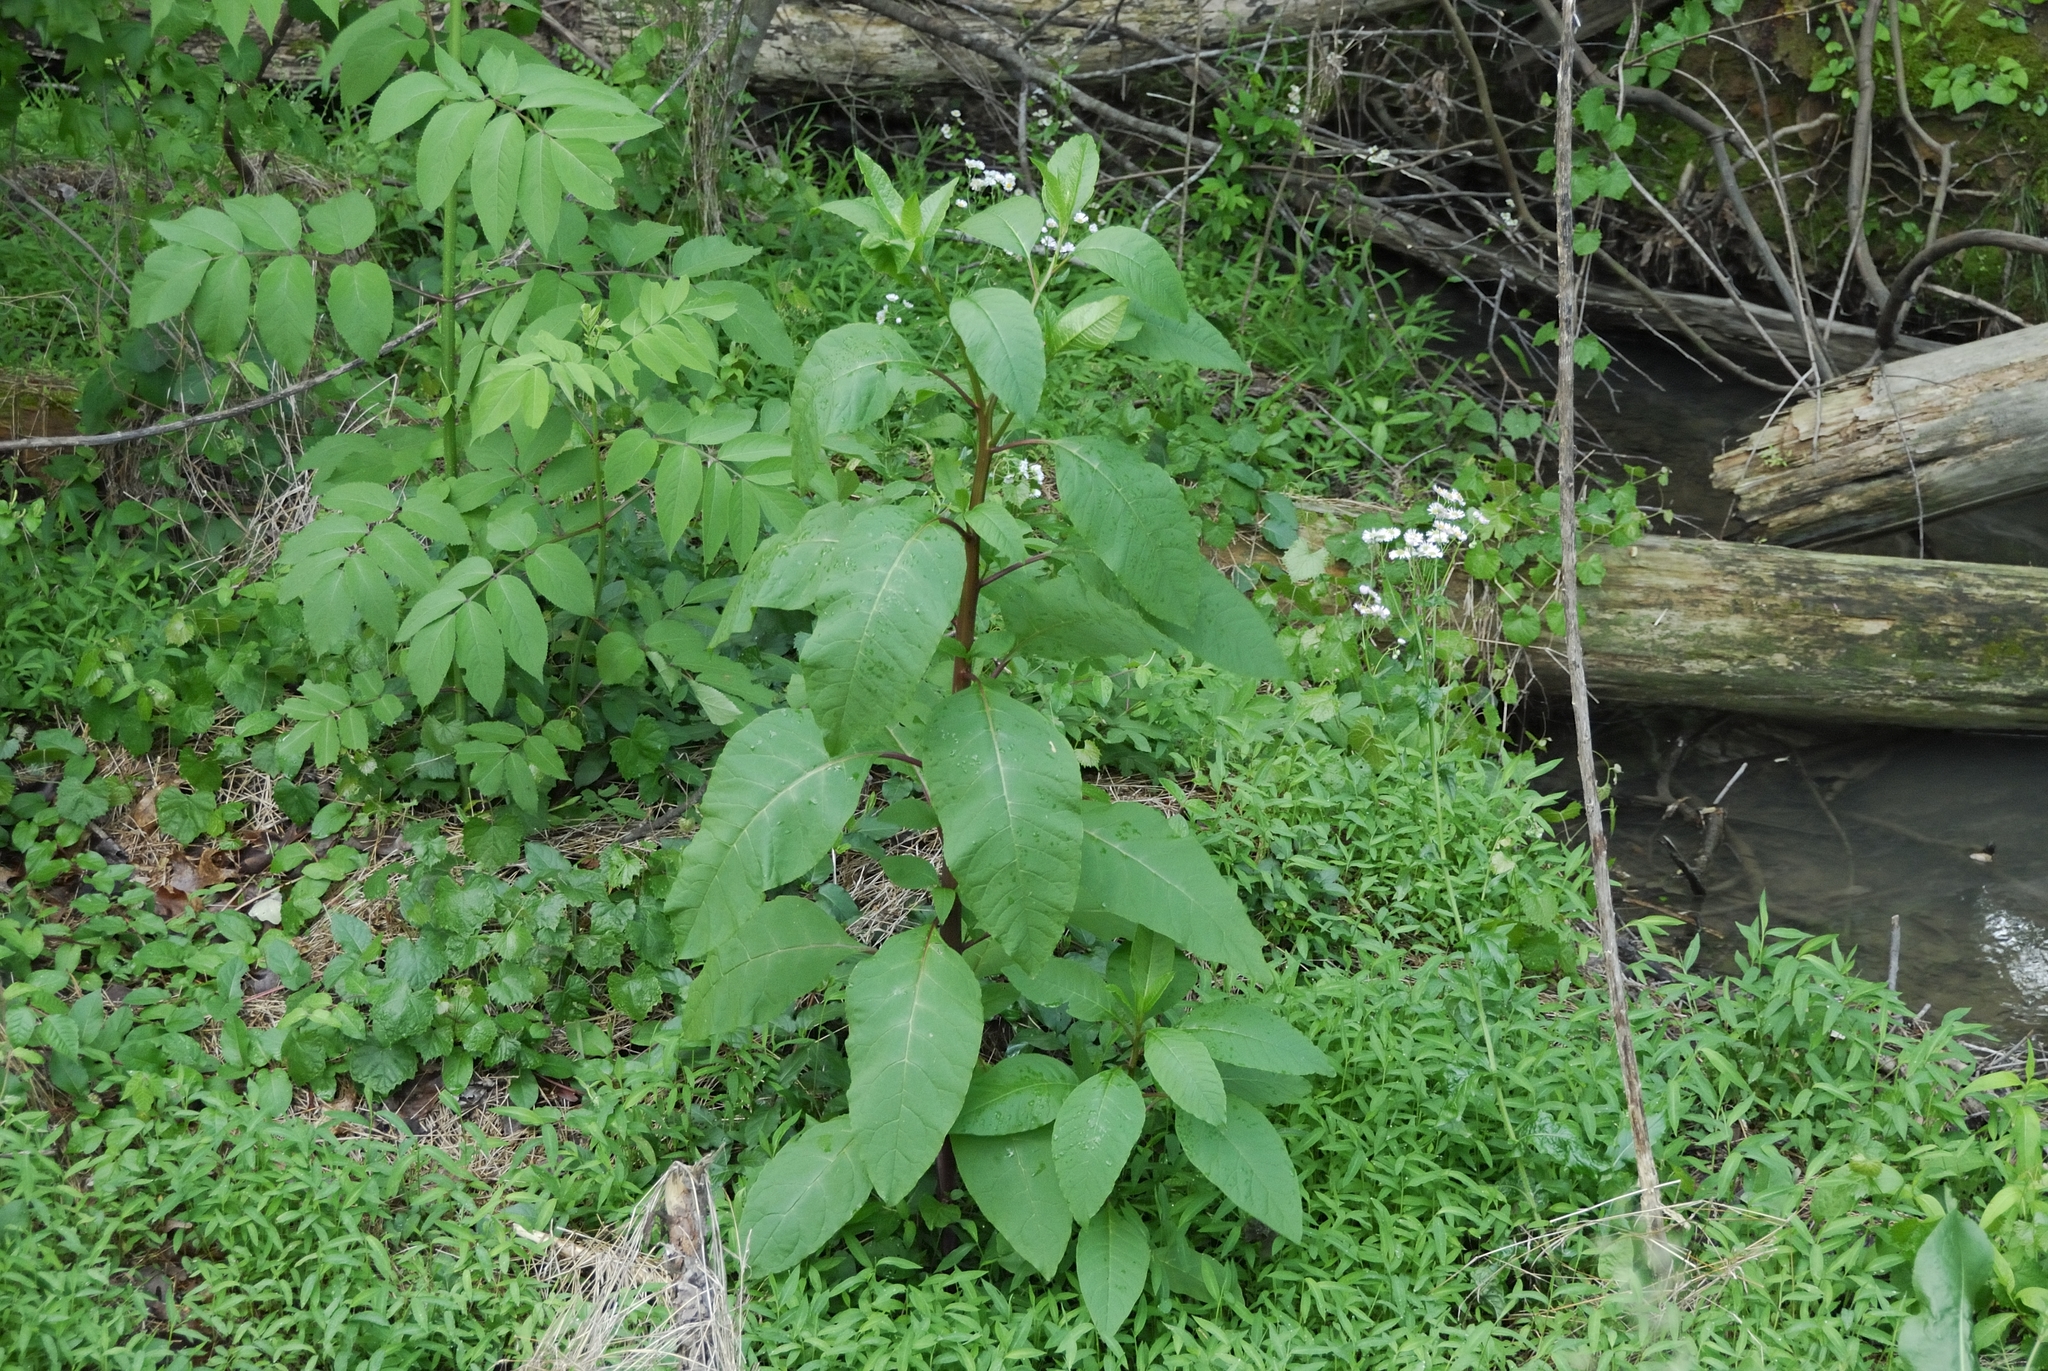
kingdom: Plantae
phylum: Tracheophyta
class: Magnoliopsida
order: Caryophyllales
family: Phytolaccaceae
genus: Phytolacca
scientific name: Phytolacca americana
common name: American pokeweed
